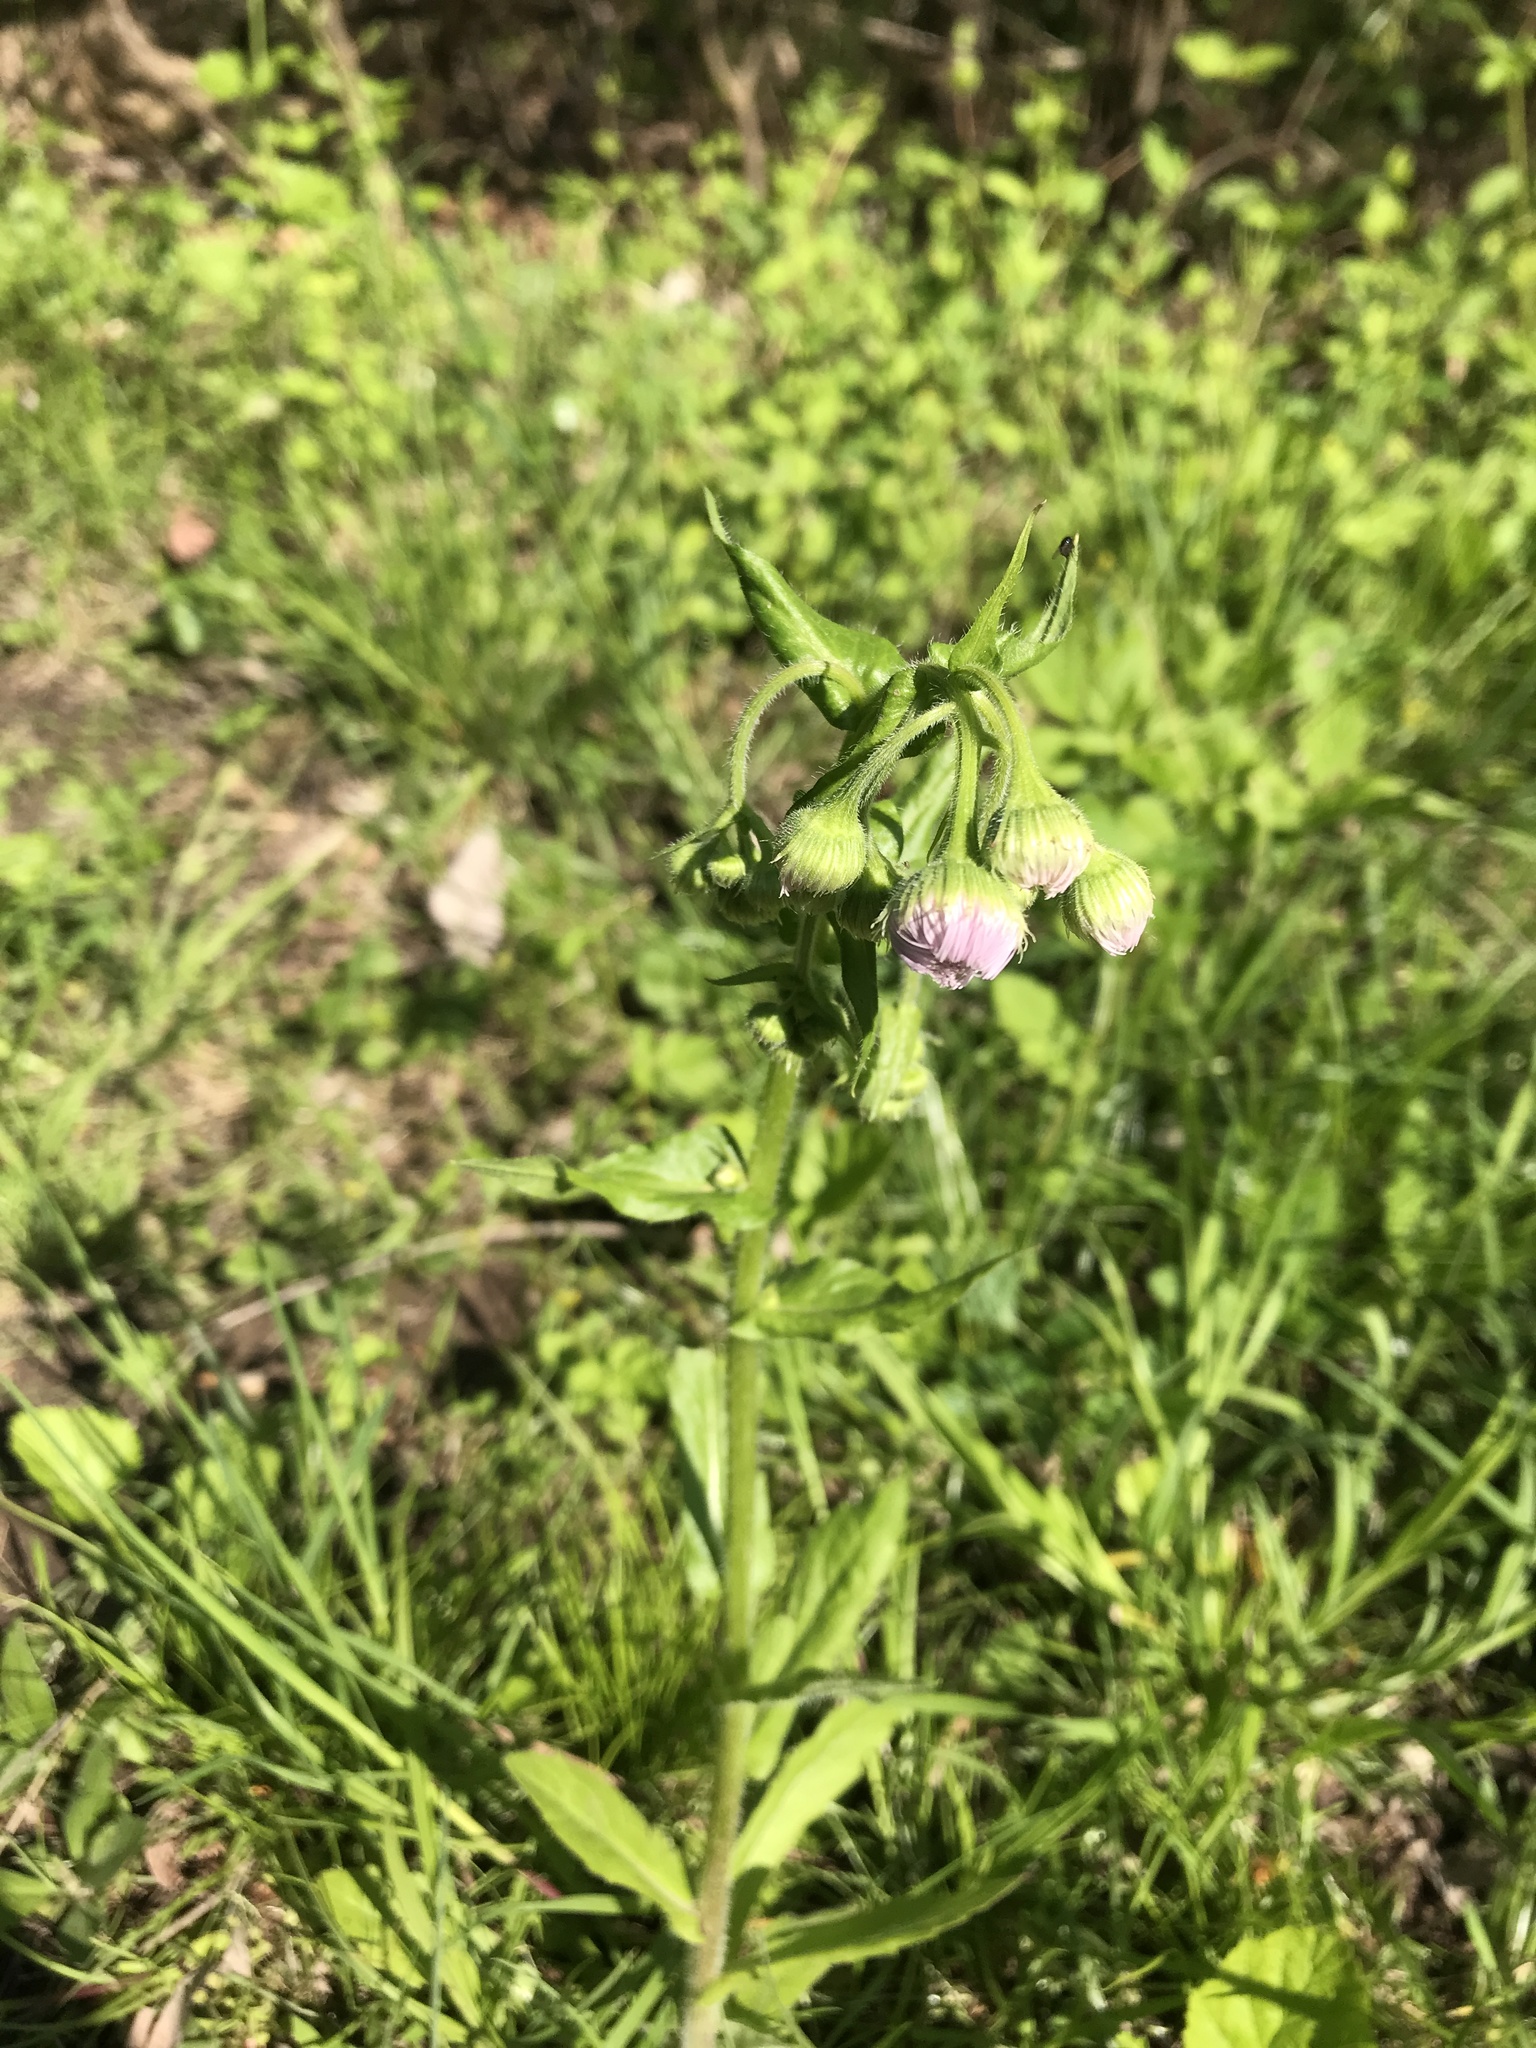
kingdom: Plantae
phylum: Tracheophyta
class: Magnoliopsida
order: Asterales
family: Asteraceae
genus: Erigeron
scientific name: Erigeron philadelphicus
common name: Robin's-plantain
